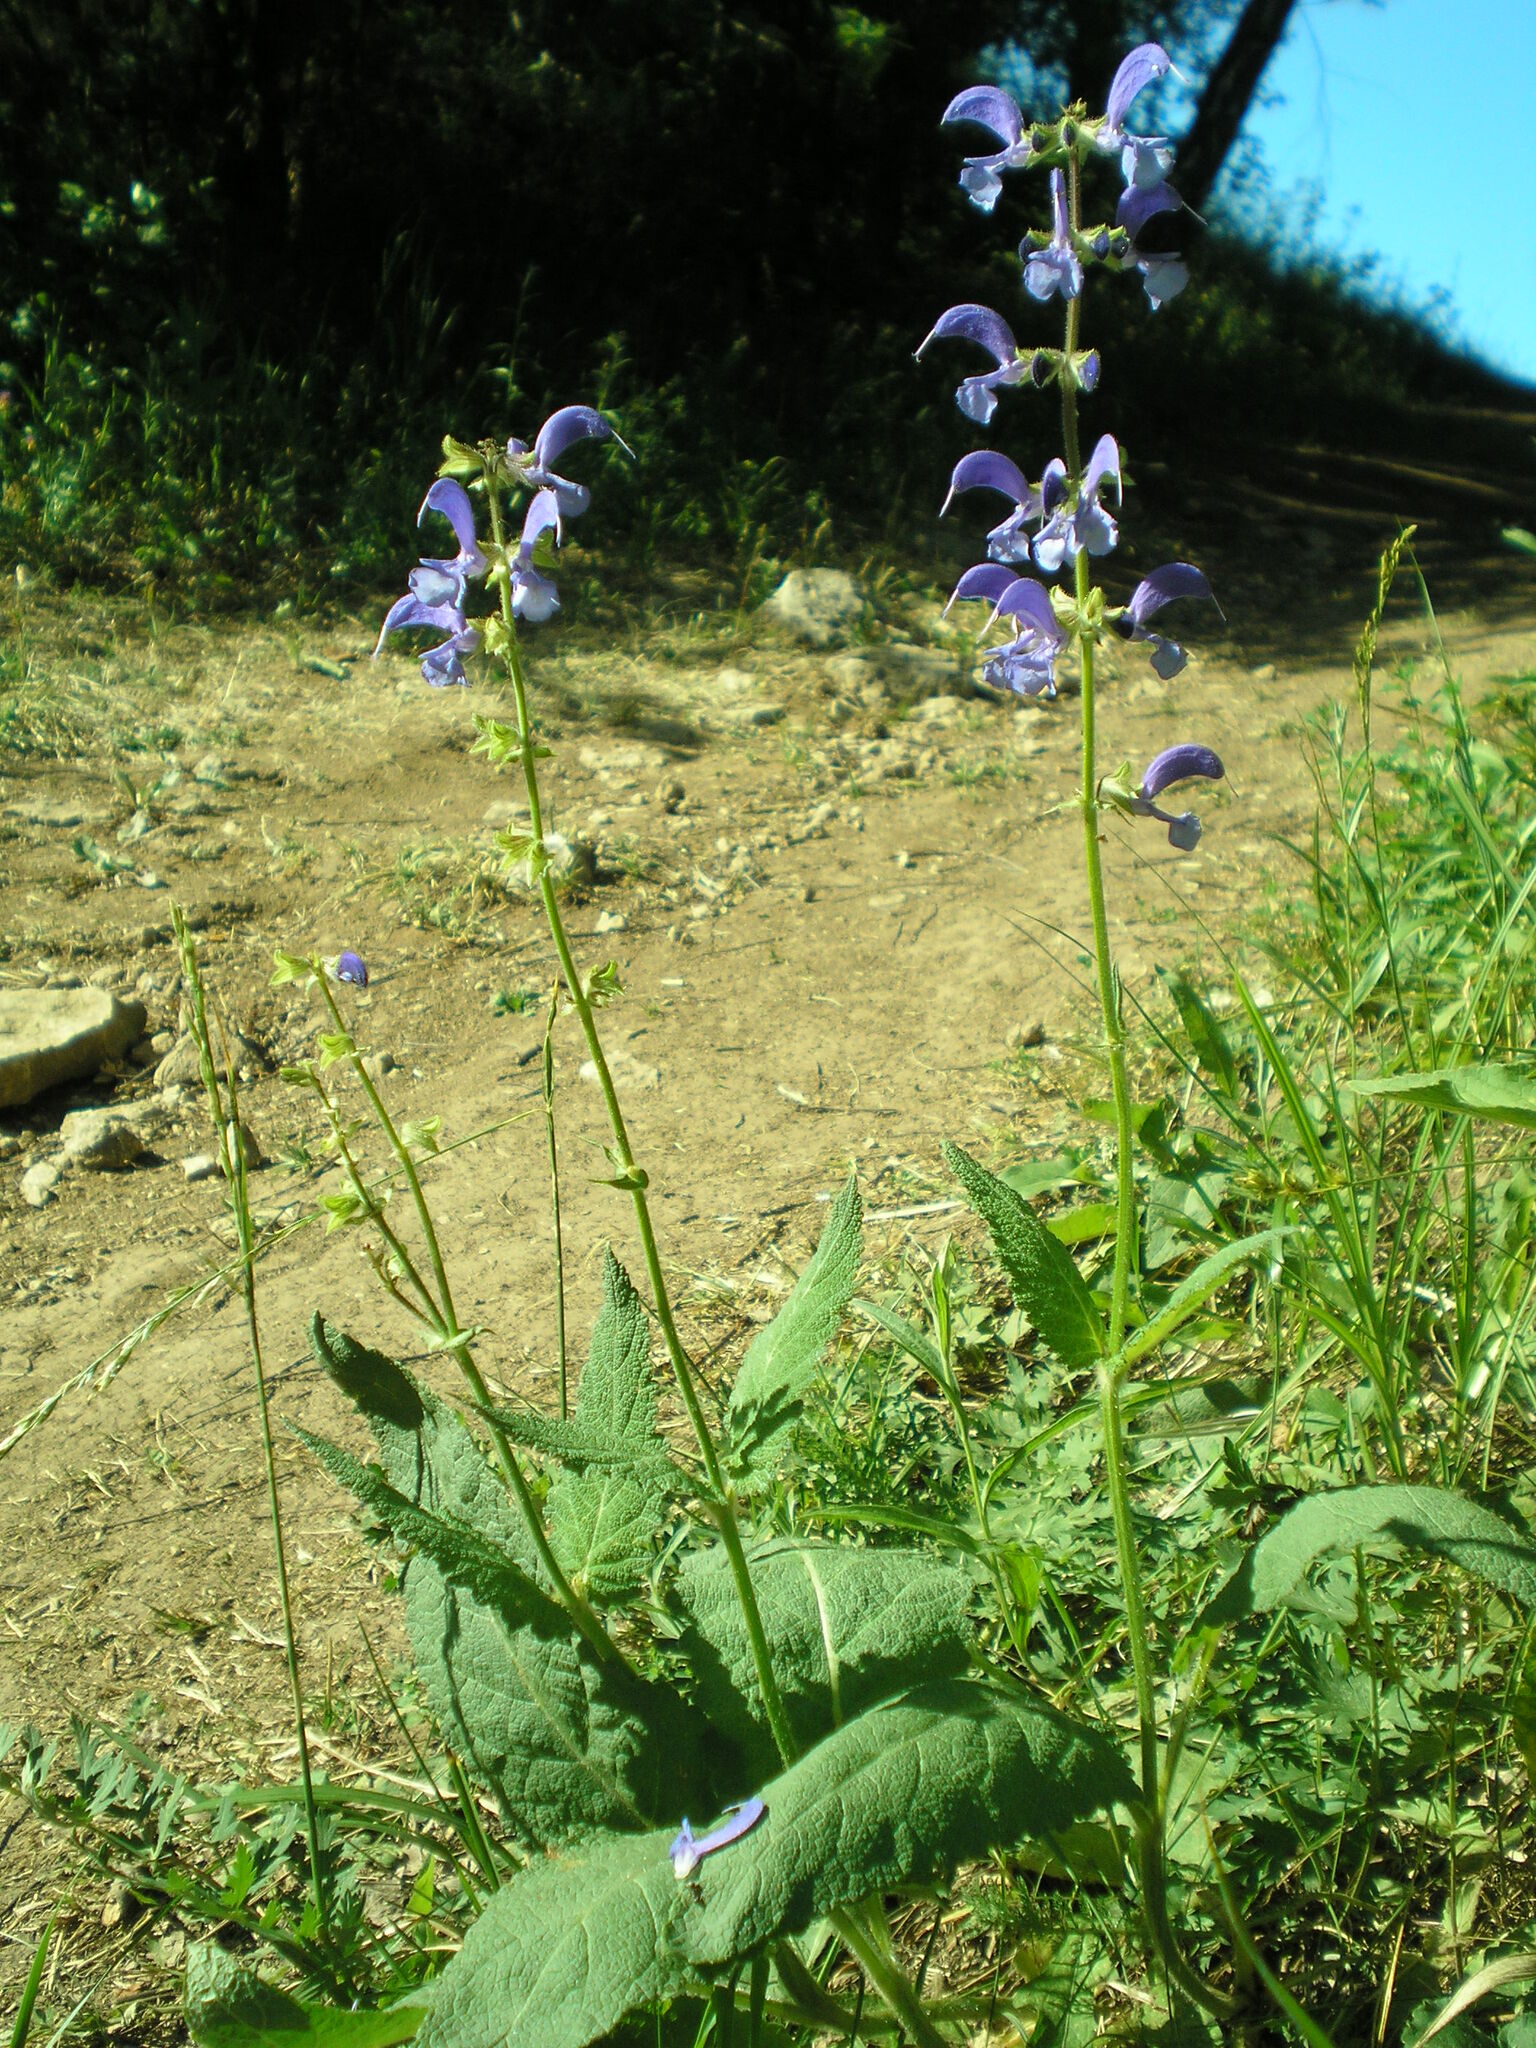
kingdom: Plantae
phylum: Tracheophyta
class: Magnoliopsida
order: Lamiales
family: Lamiaceae
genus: Salvia
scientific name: Salvia pratensis
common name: Meadow sage
